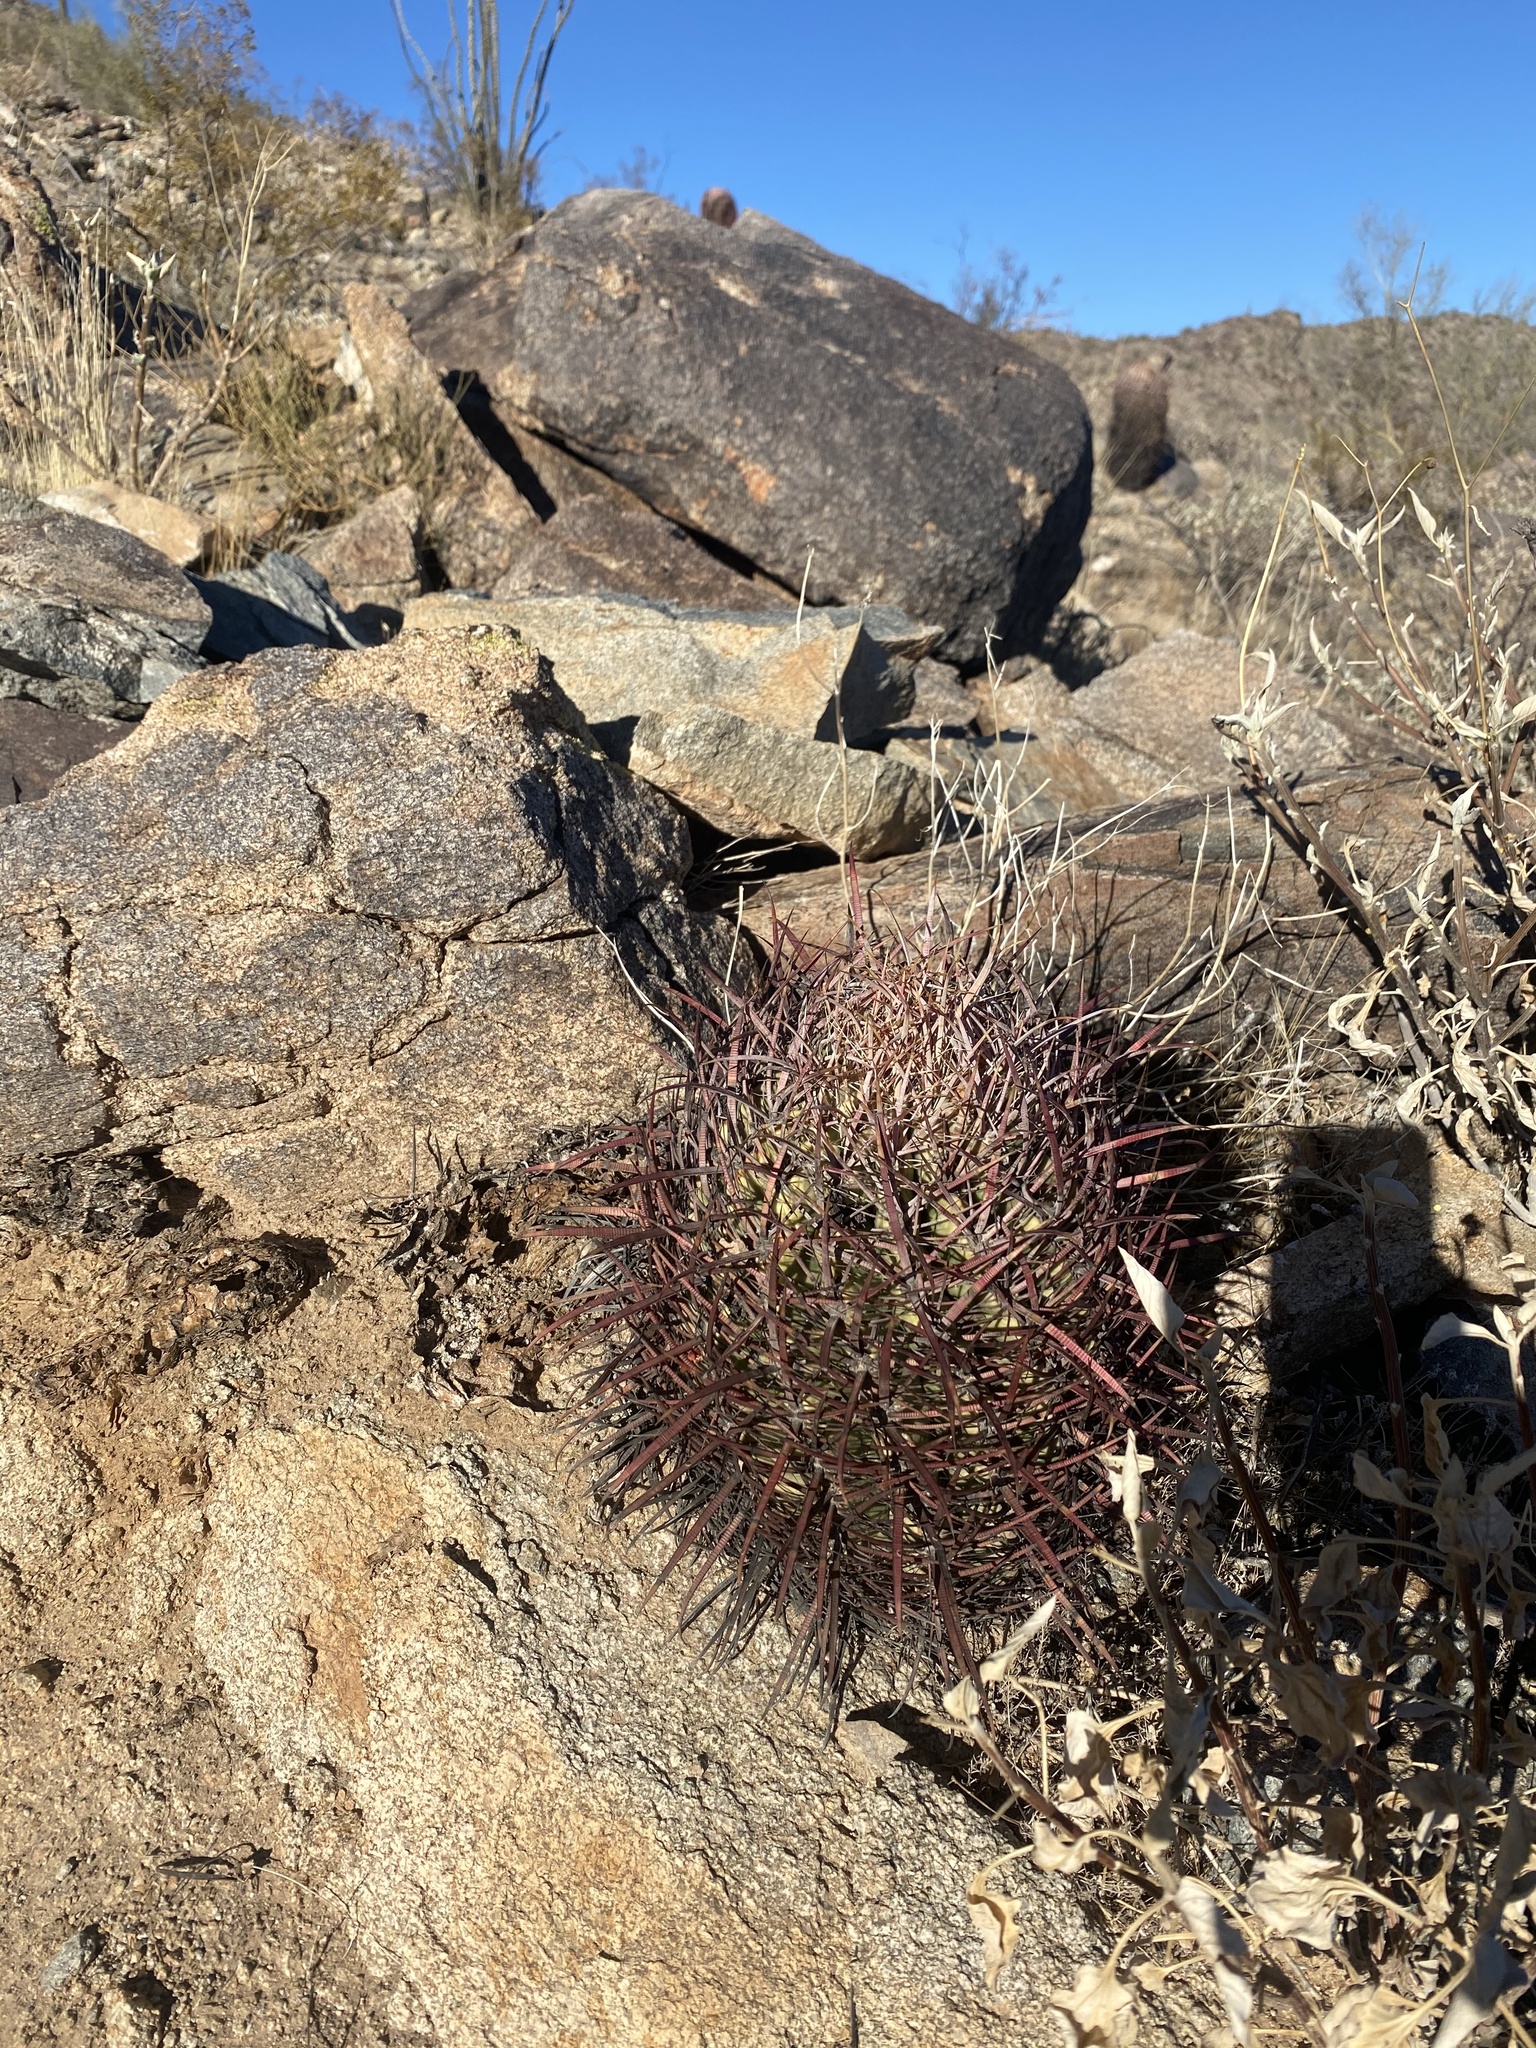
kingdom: Plantae
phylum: Tracheophyta
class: Magnoliopsida
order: Caryophyllales
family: Cactaceae
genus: Ferocactus
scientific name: Ferocactus cylindraceus
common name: California barrel cactus
